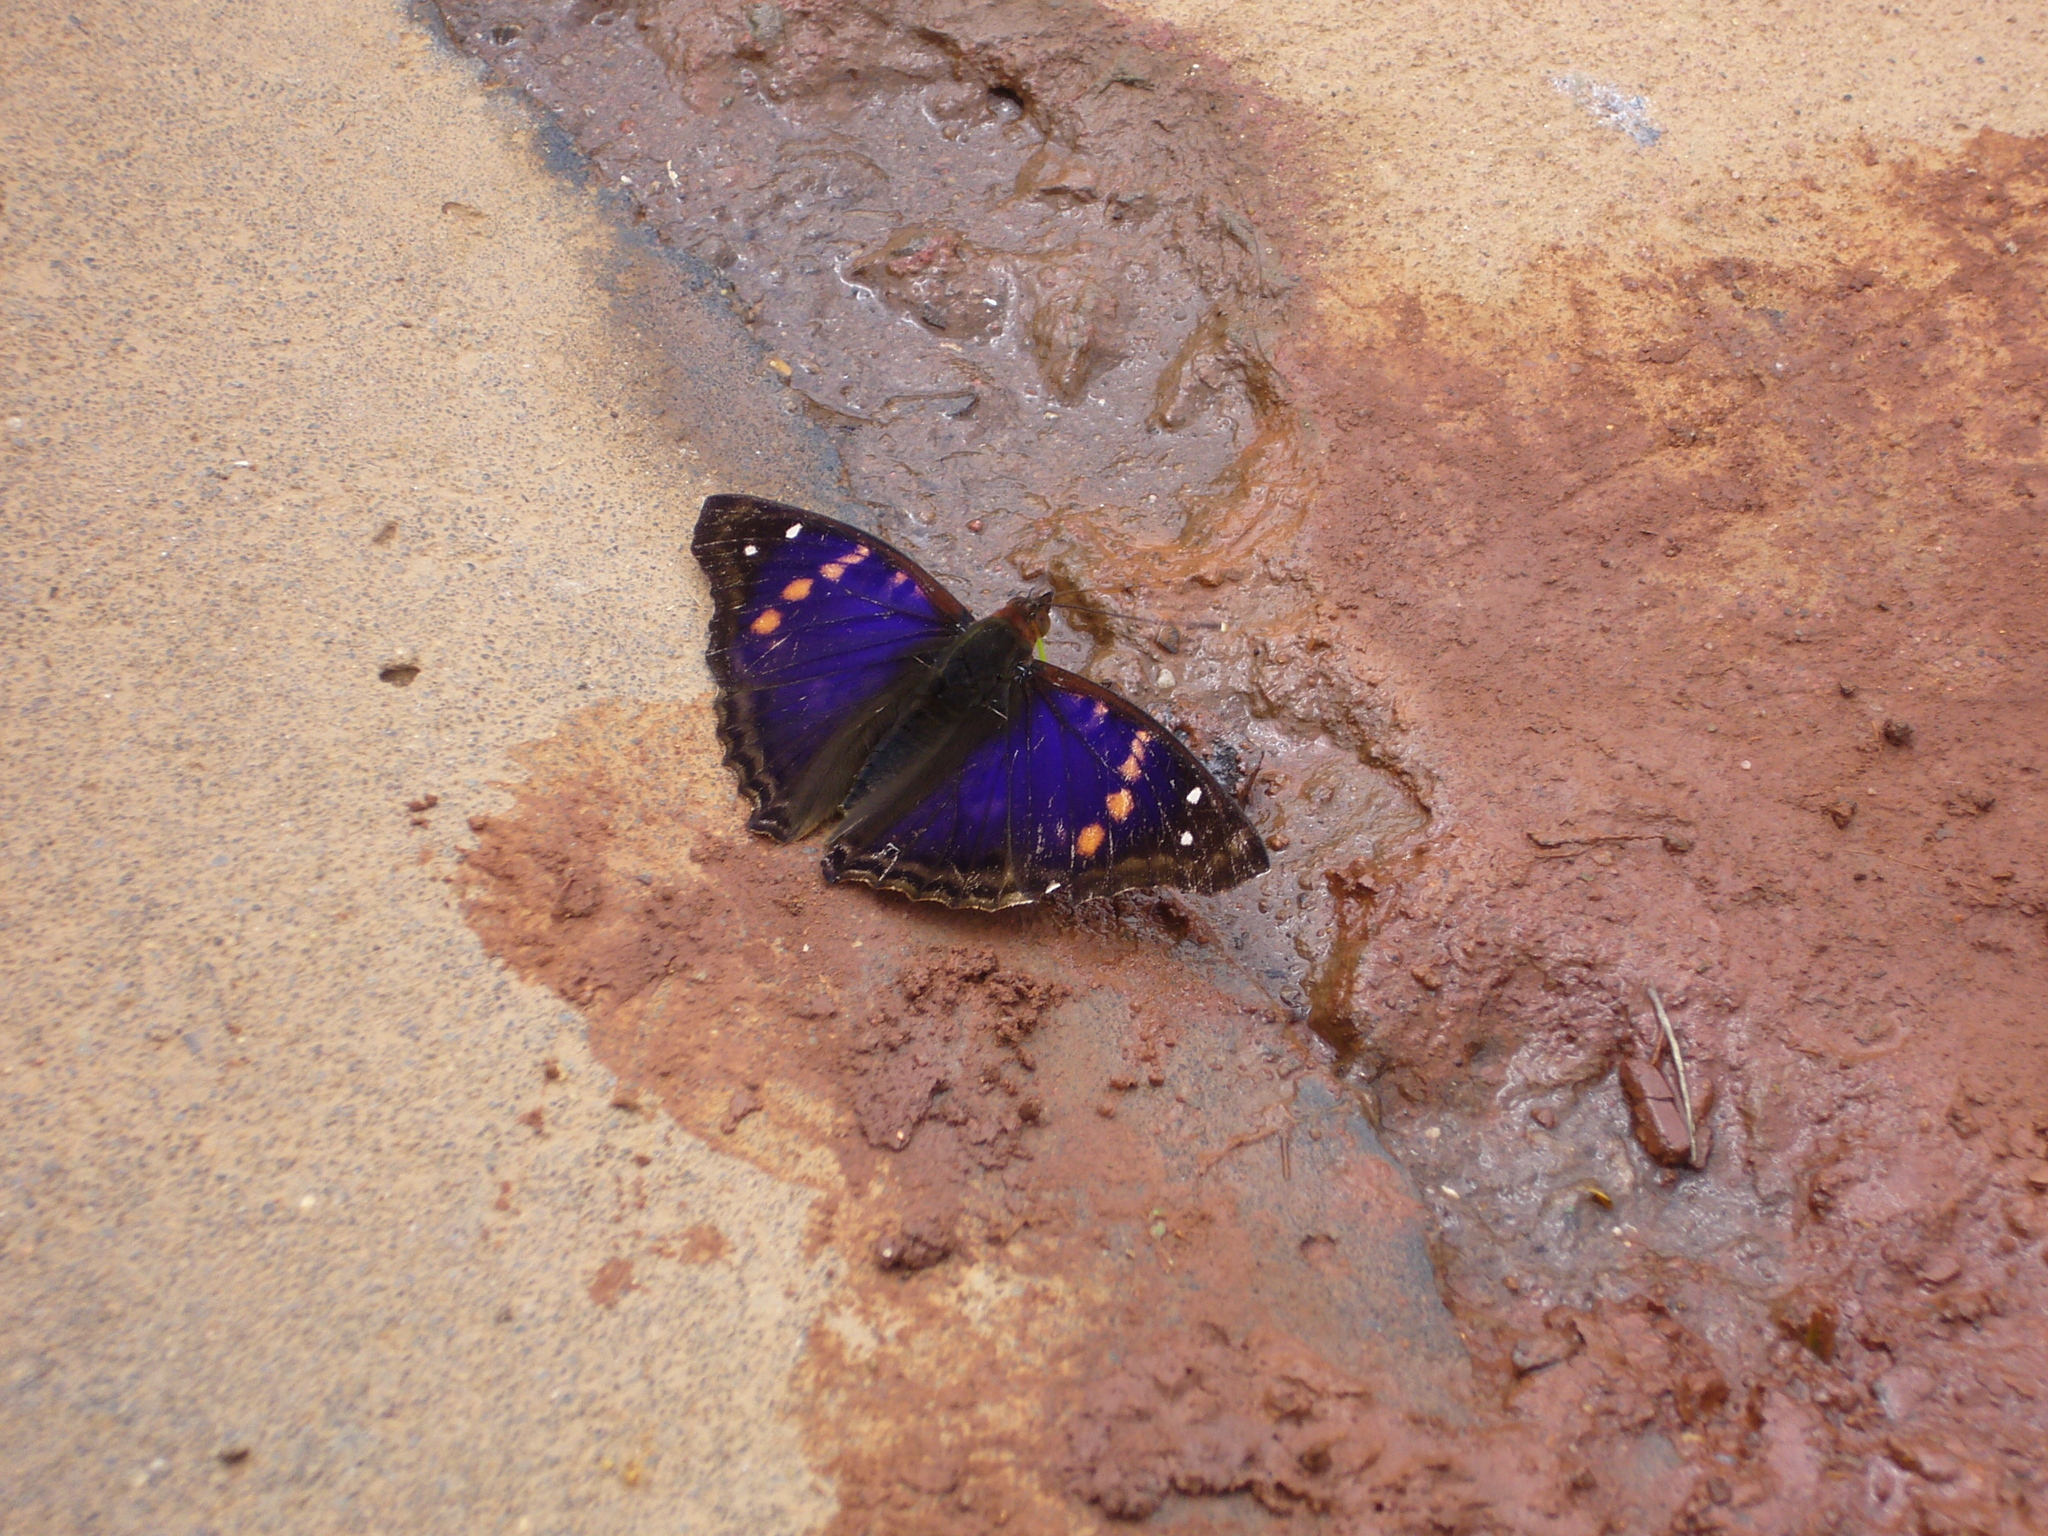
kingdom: Animalia
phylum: Arthropoda
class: Insecta
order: Lepidoptera
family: Nymphalidae
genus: Doxocopa
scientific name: Doxocopa agathina
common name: Agathina emperor
